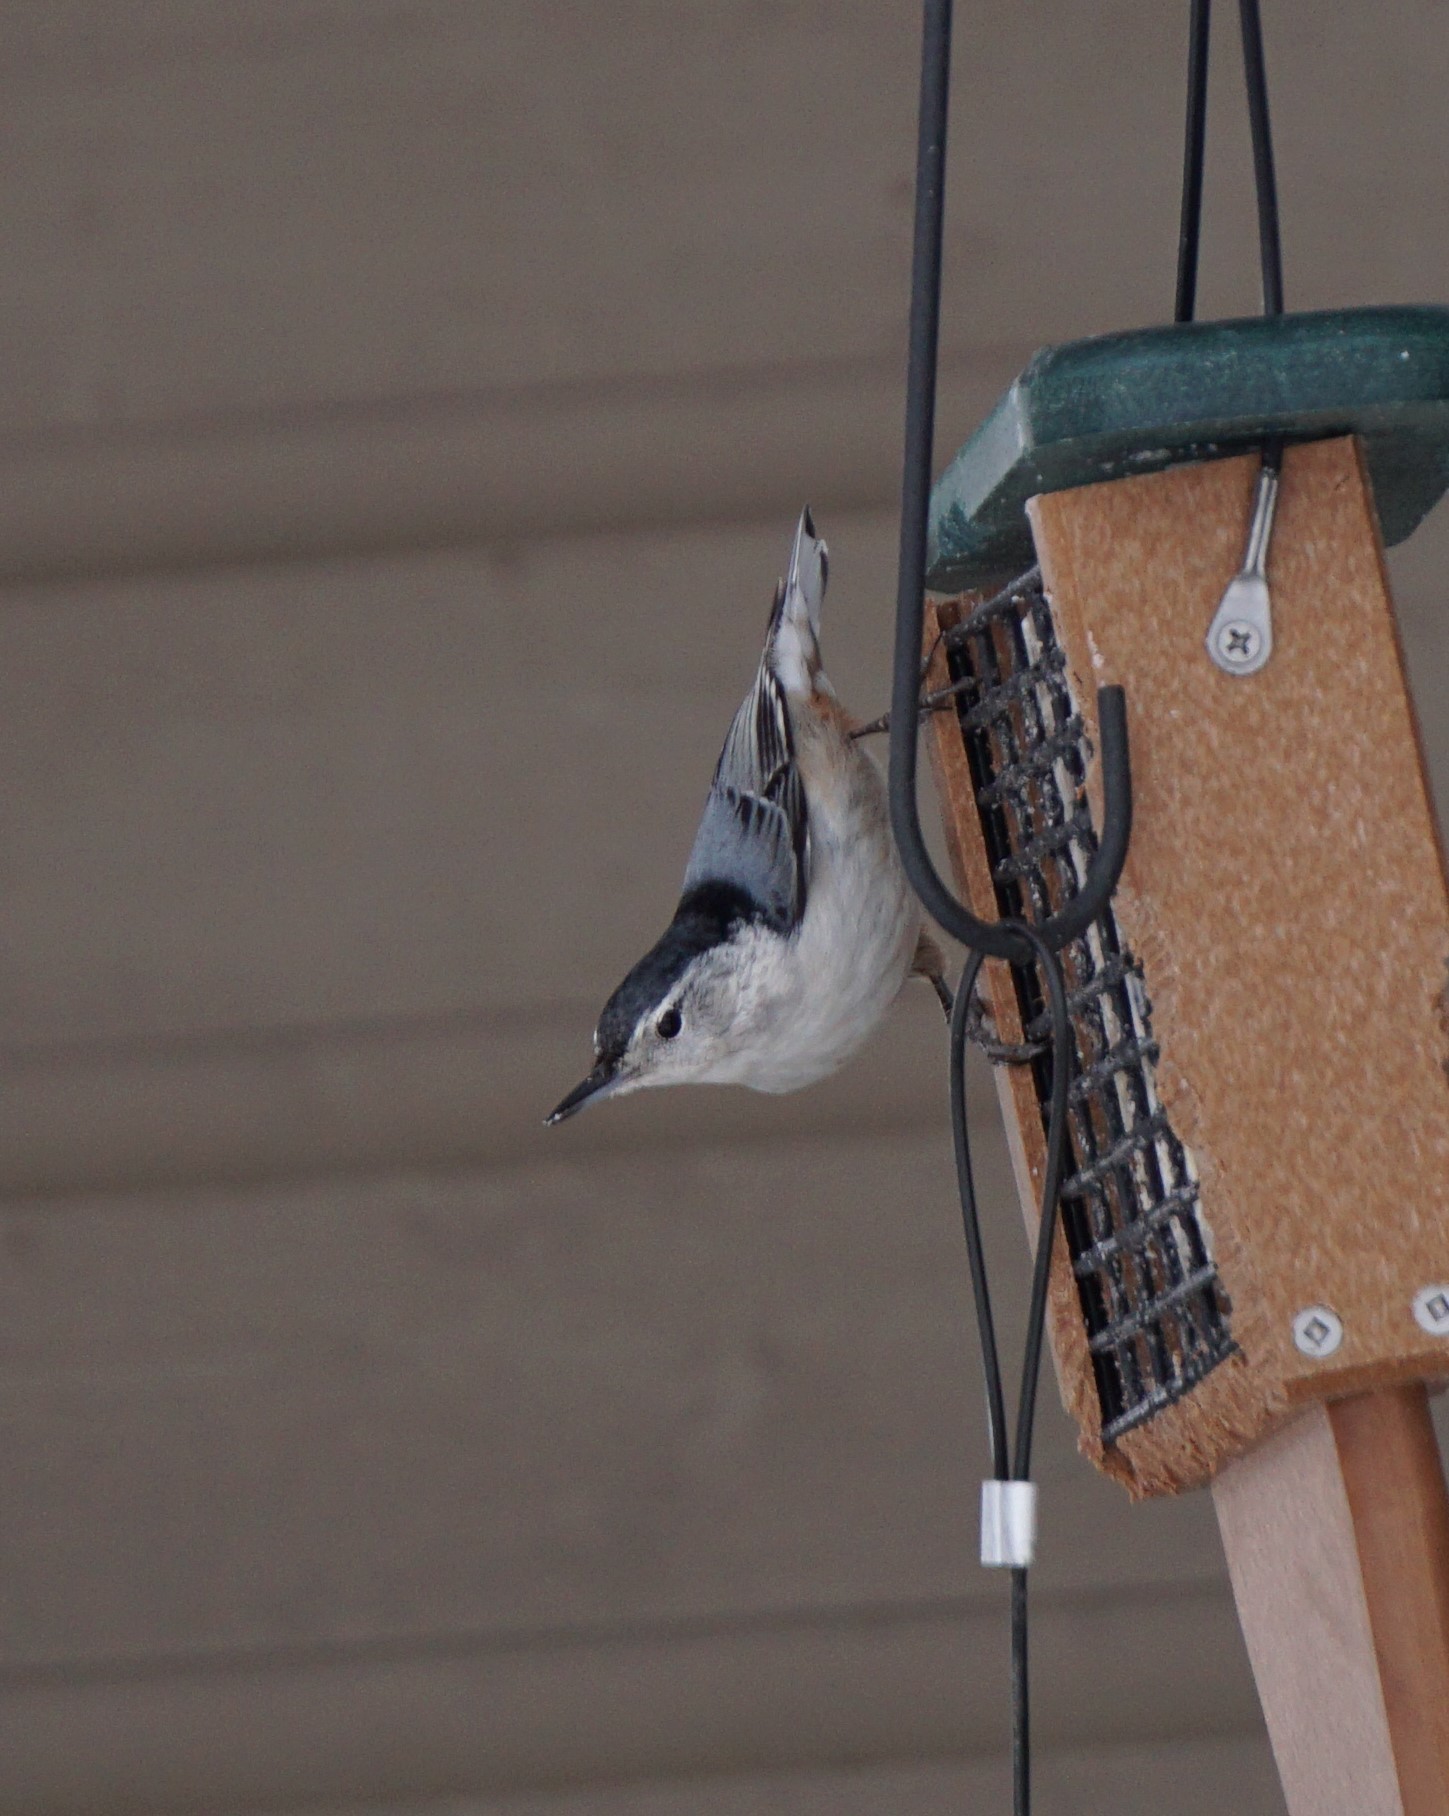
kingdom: Animalia
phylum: Chordata
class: Aves
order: Passeriformes
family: Sittidae
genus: Sitta
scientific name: Sitta carolinensis
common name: White-breasted nuthatch
